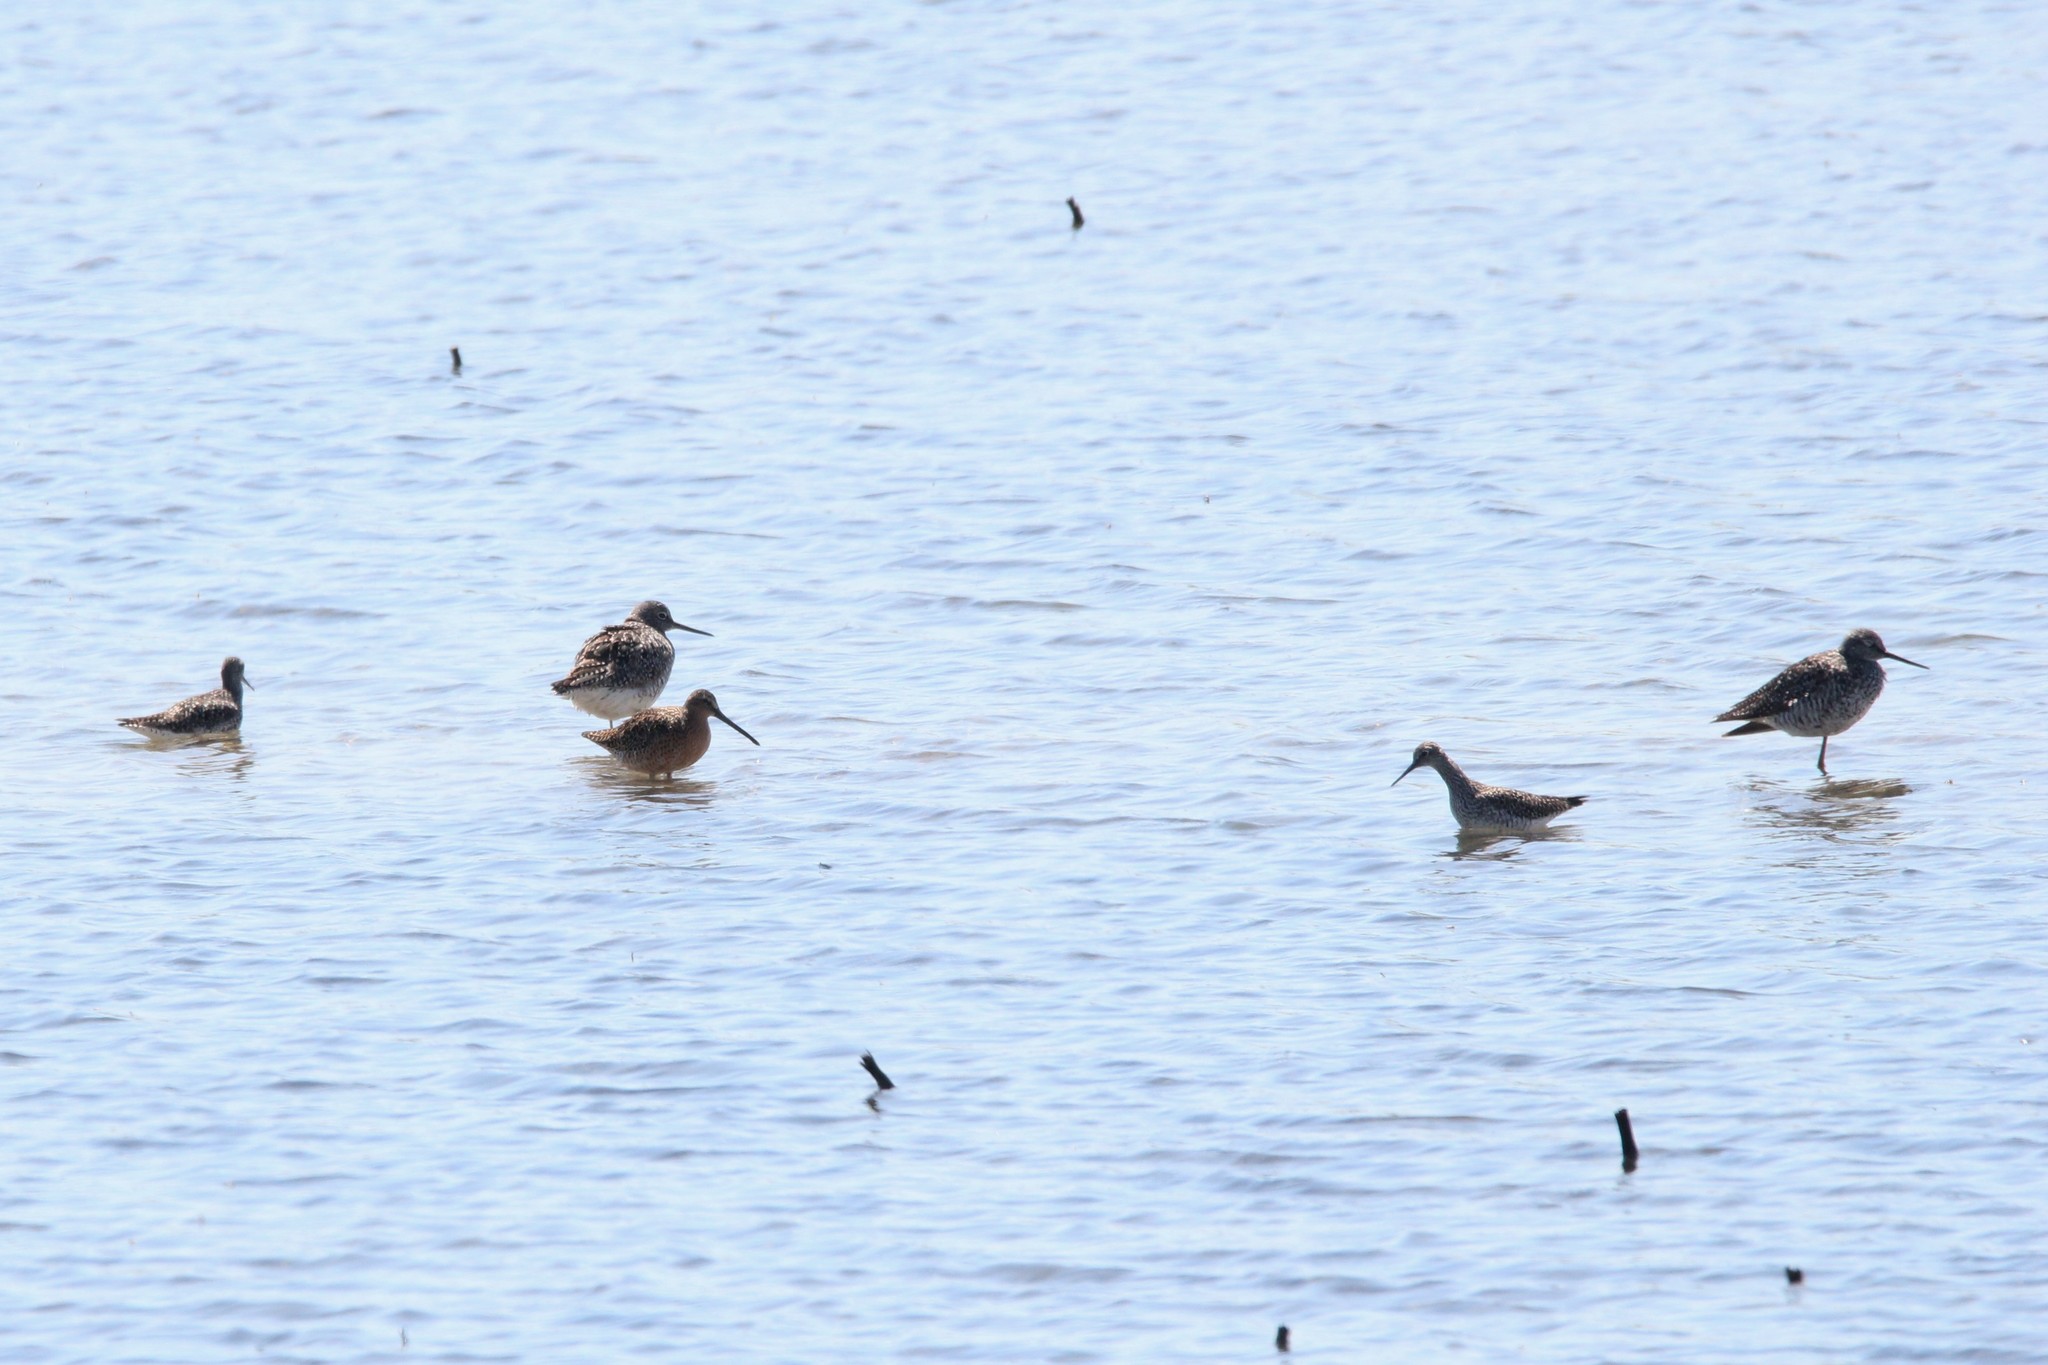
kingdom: Animalia
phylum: Chordata
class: Aves
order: Charadriiformes
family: Scolopacidae
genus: Limnodromus
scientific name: Limnodromus griseus
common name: Short-billed dowitcher
